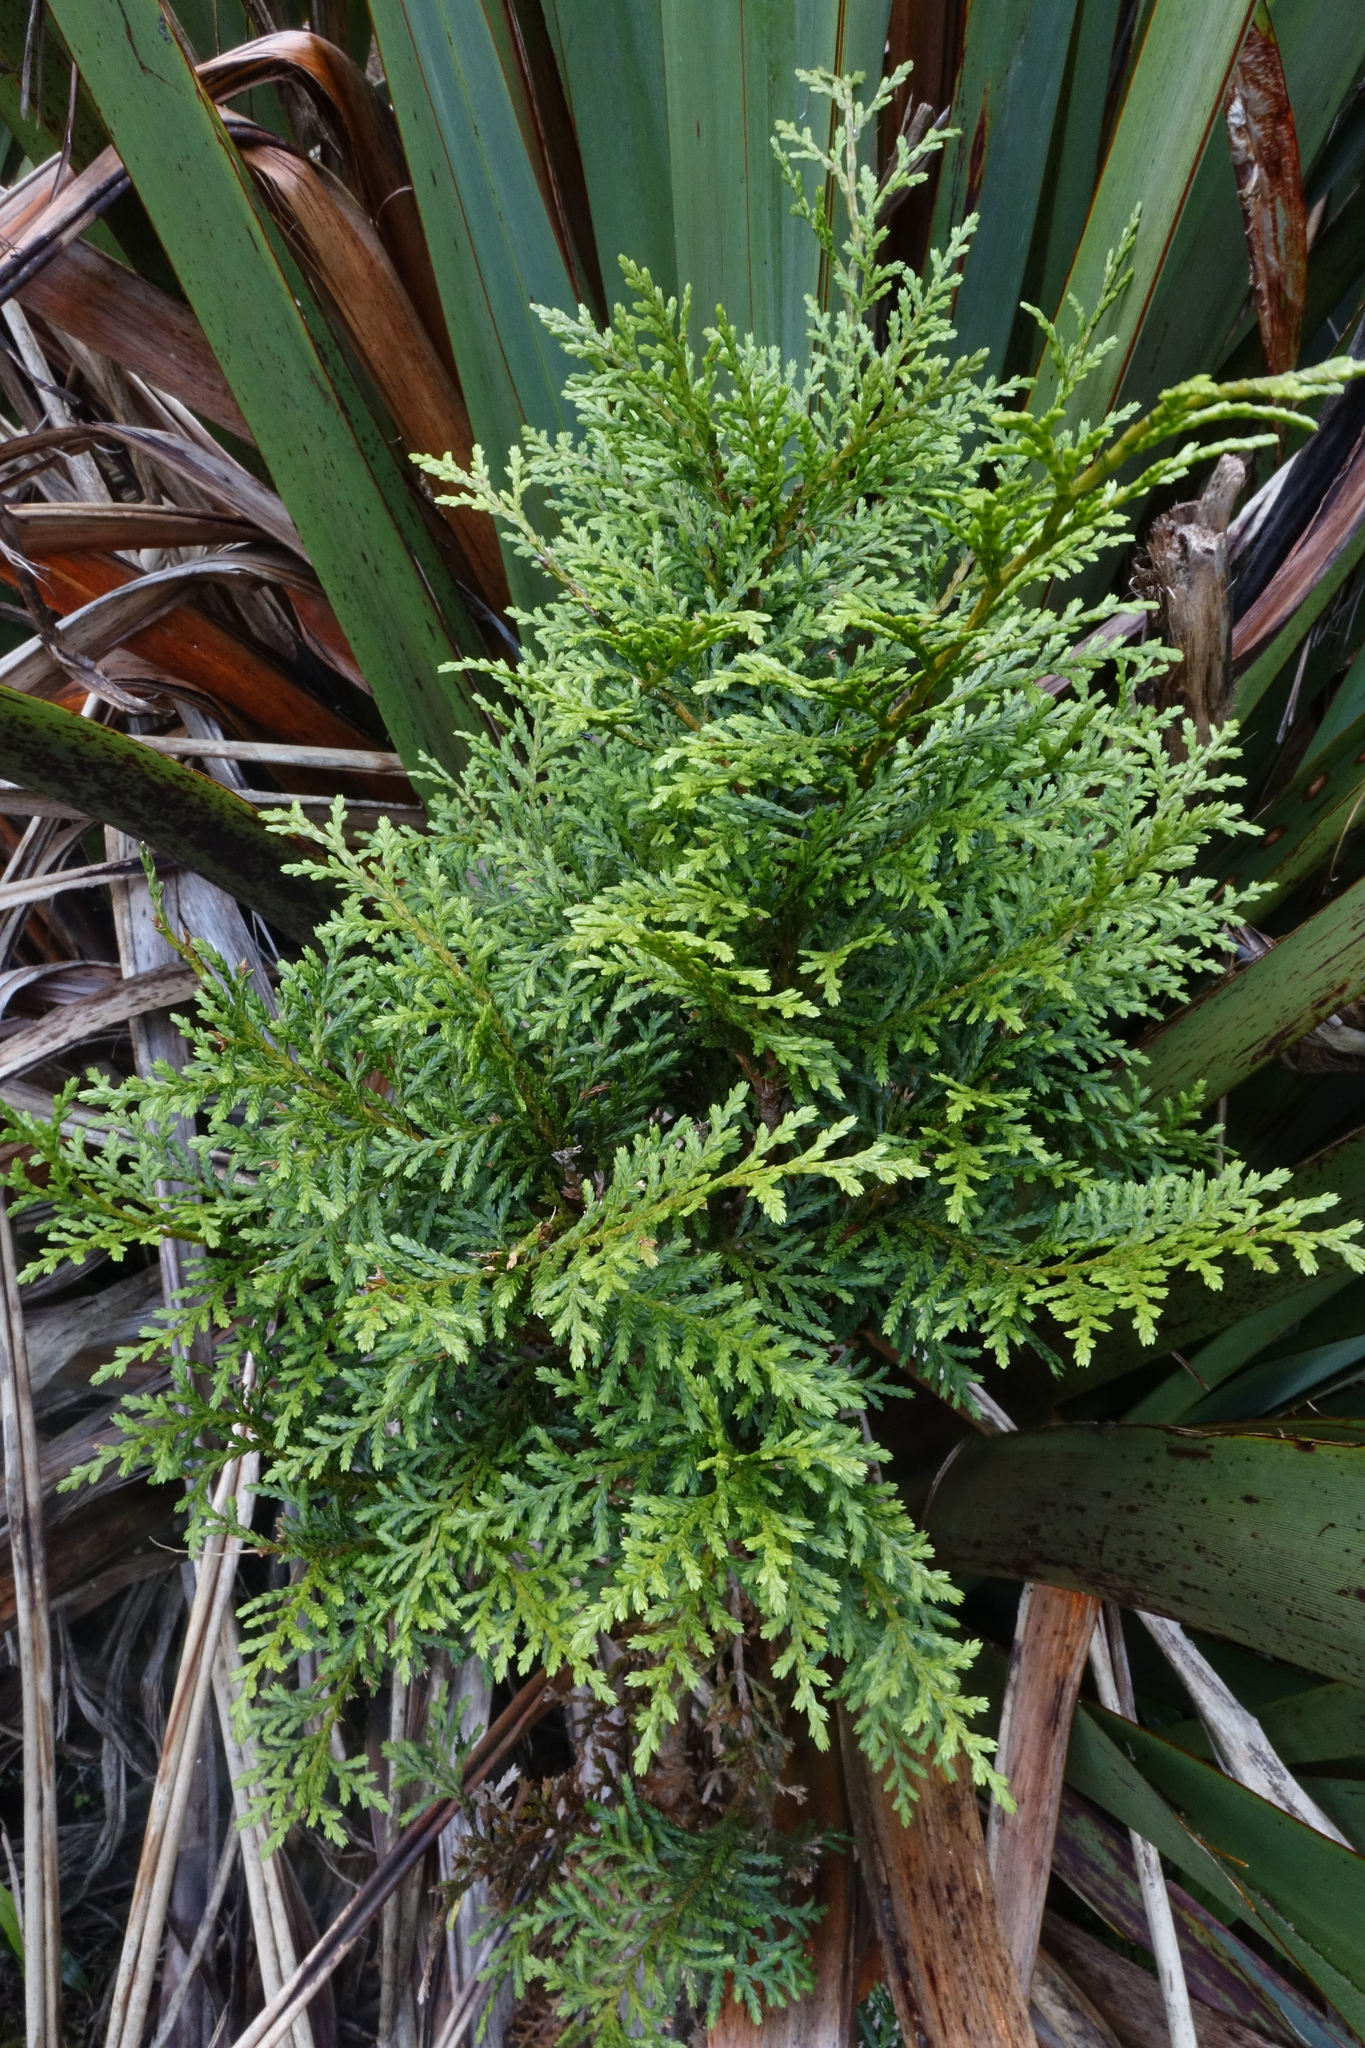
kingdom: Plantae
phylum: Tracheophyta
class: Pinopsida
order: Pinales
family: Cupressaceae
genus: Libocedrus
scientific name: Libocedrus bidwillii
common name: Cedar
